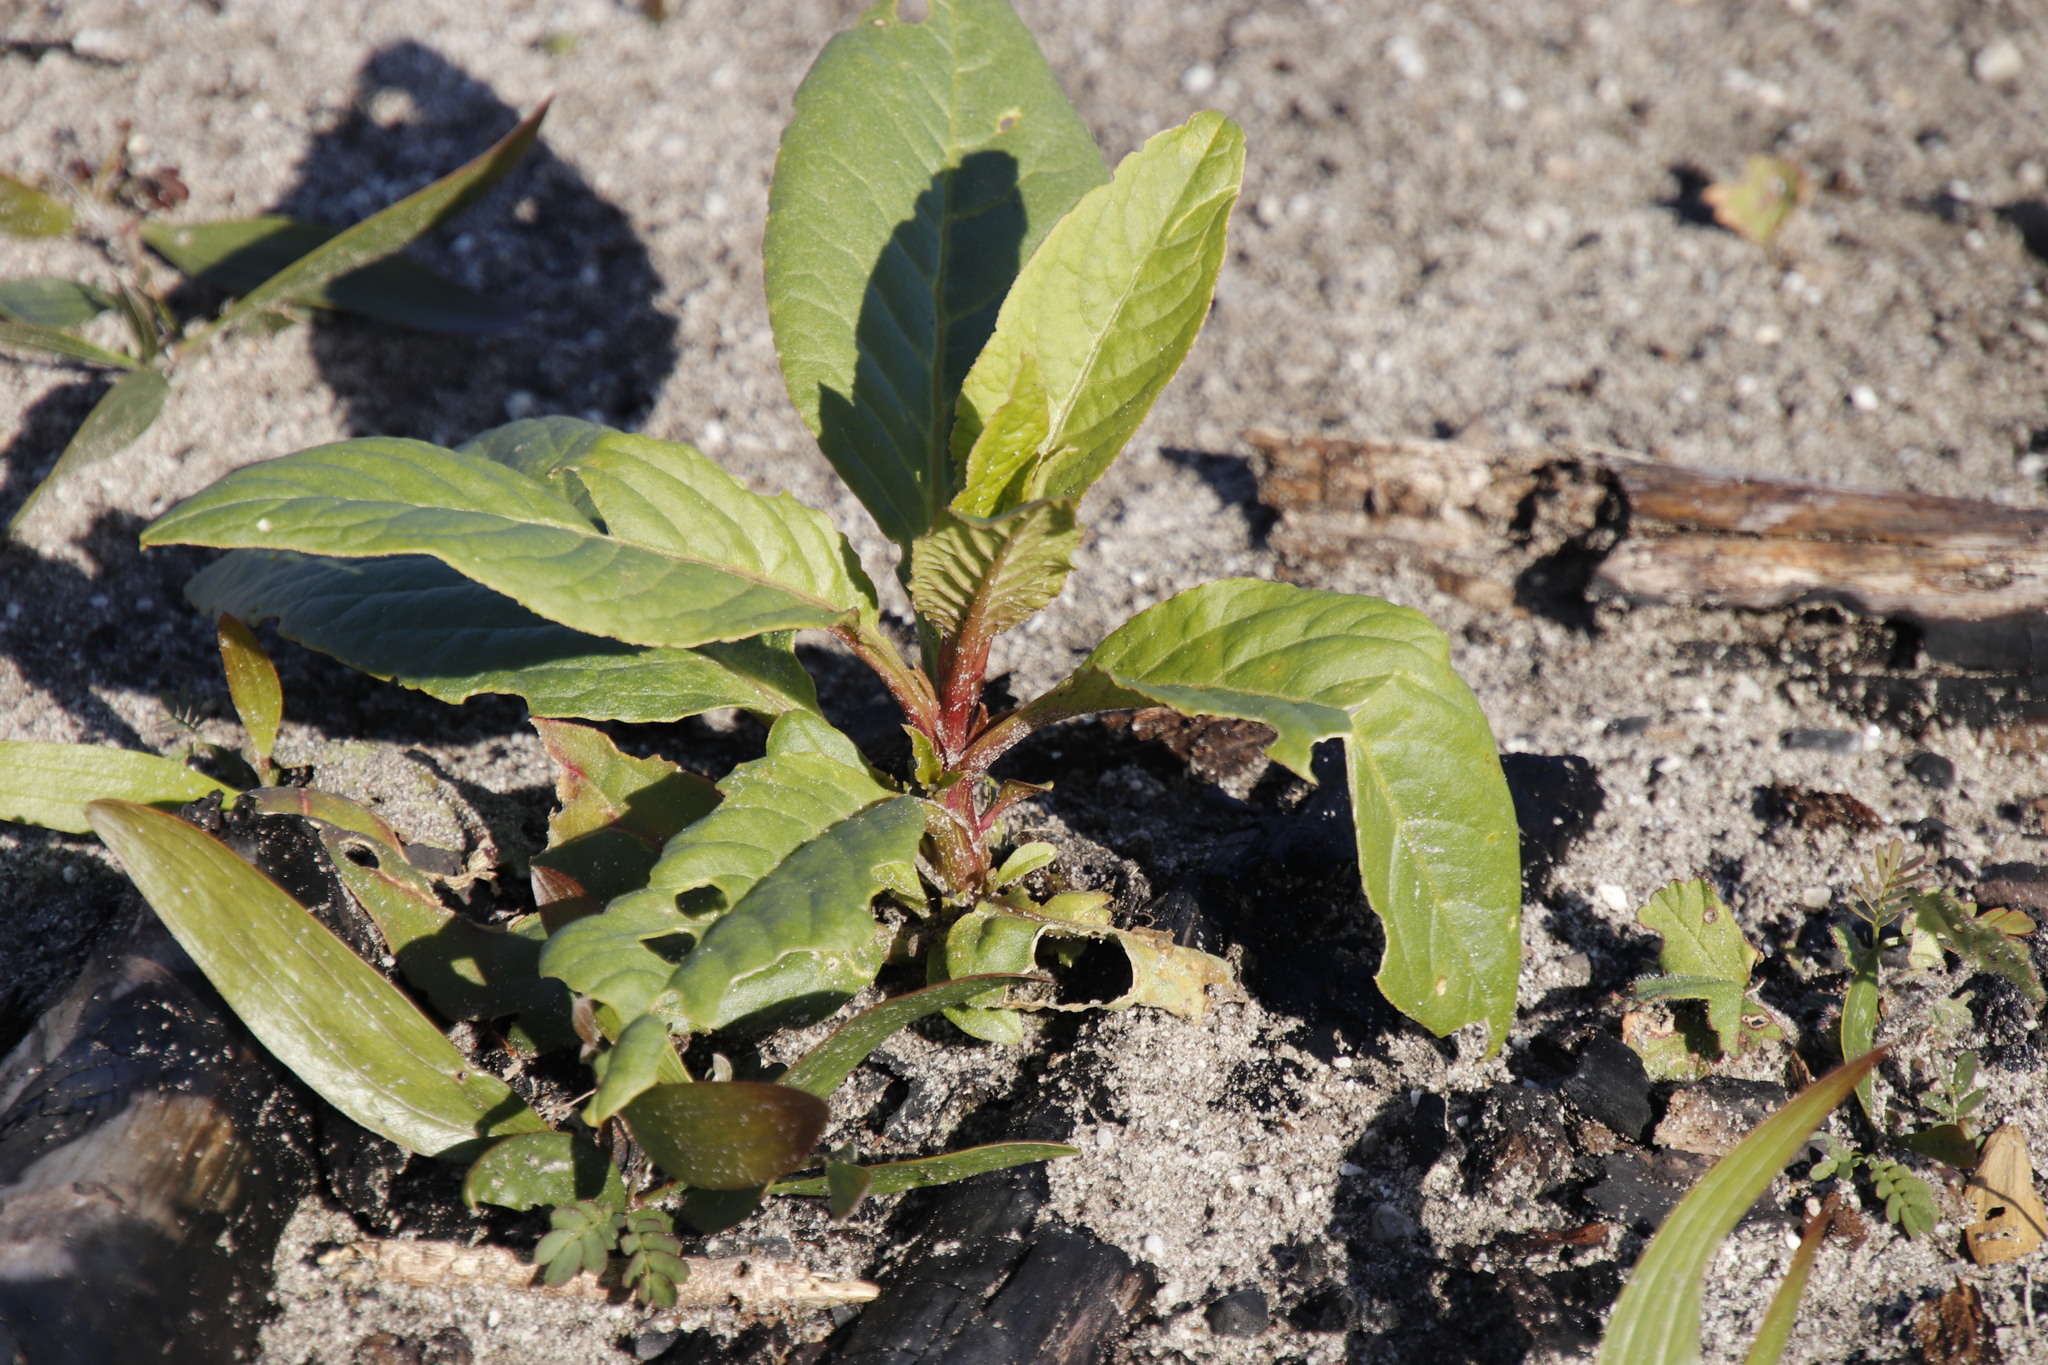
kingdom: Plantae
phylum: Tracheophyta
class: Magnoliopsida
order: Caryophyllales
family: Phytolaccaceae
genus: Phytolacca
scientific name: Phytolacca icosandra
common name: Button pokeweed
